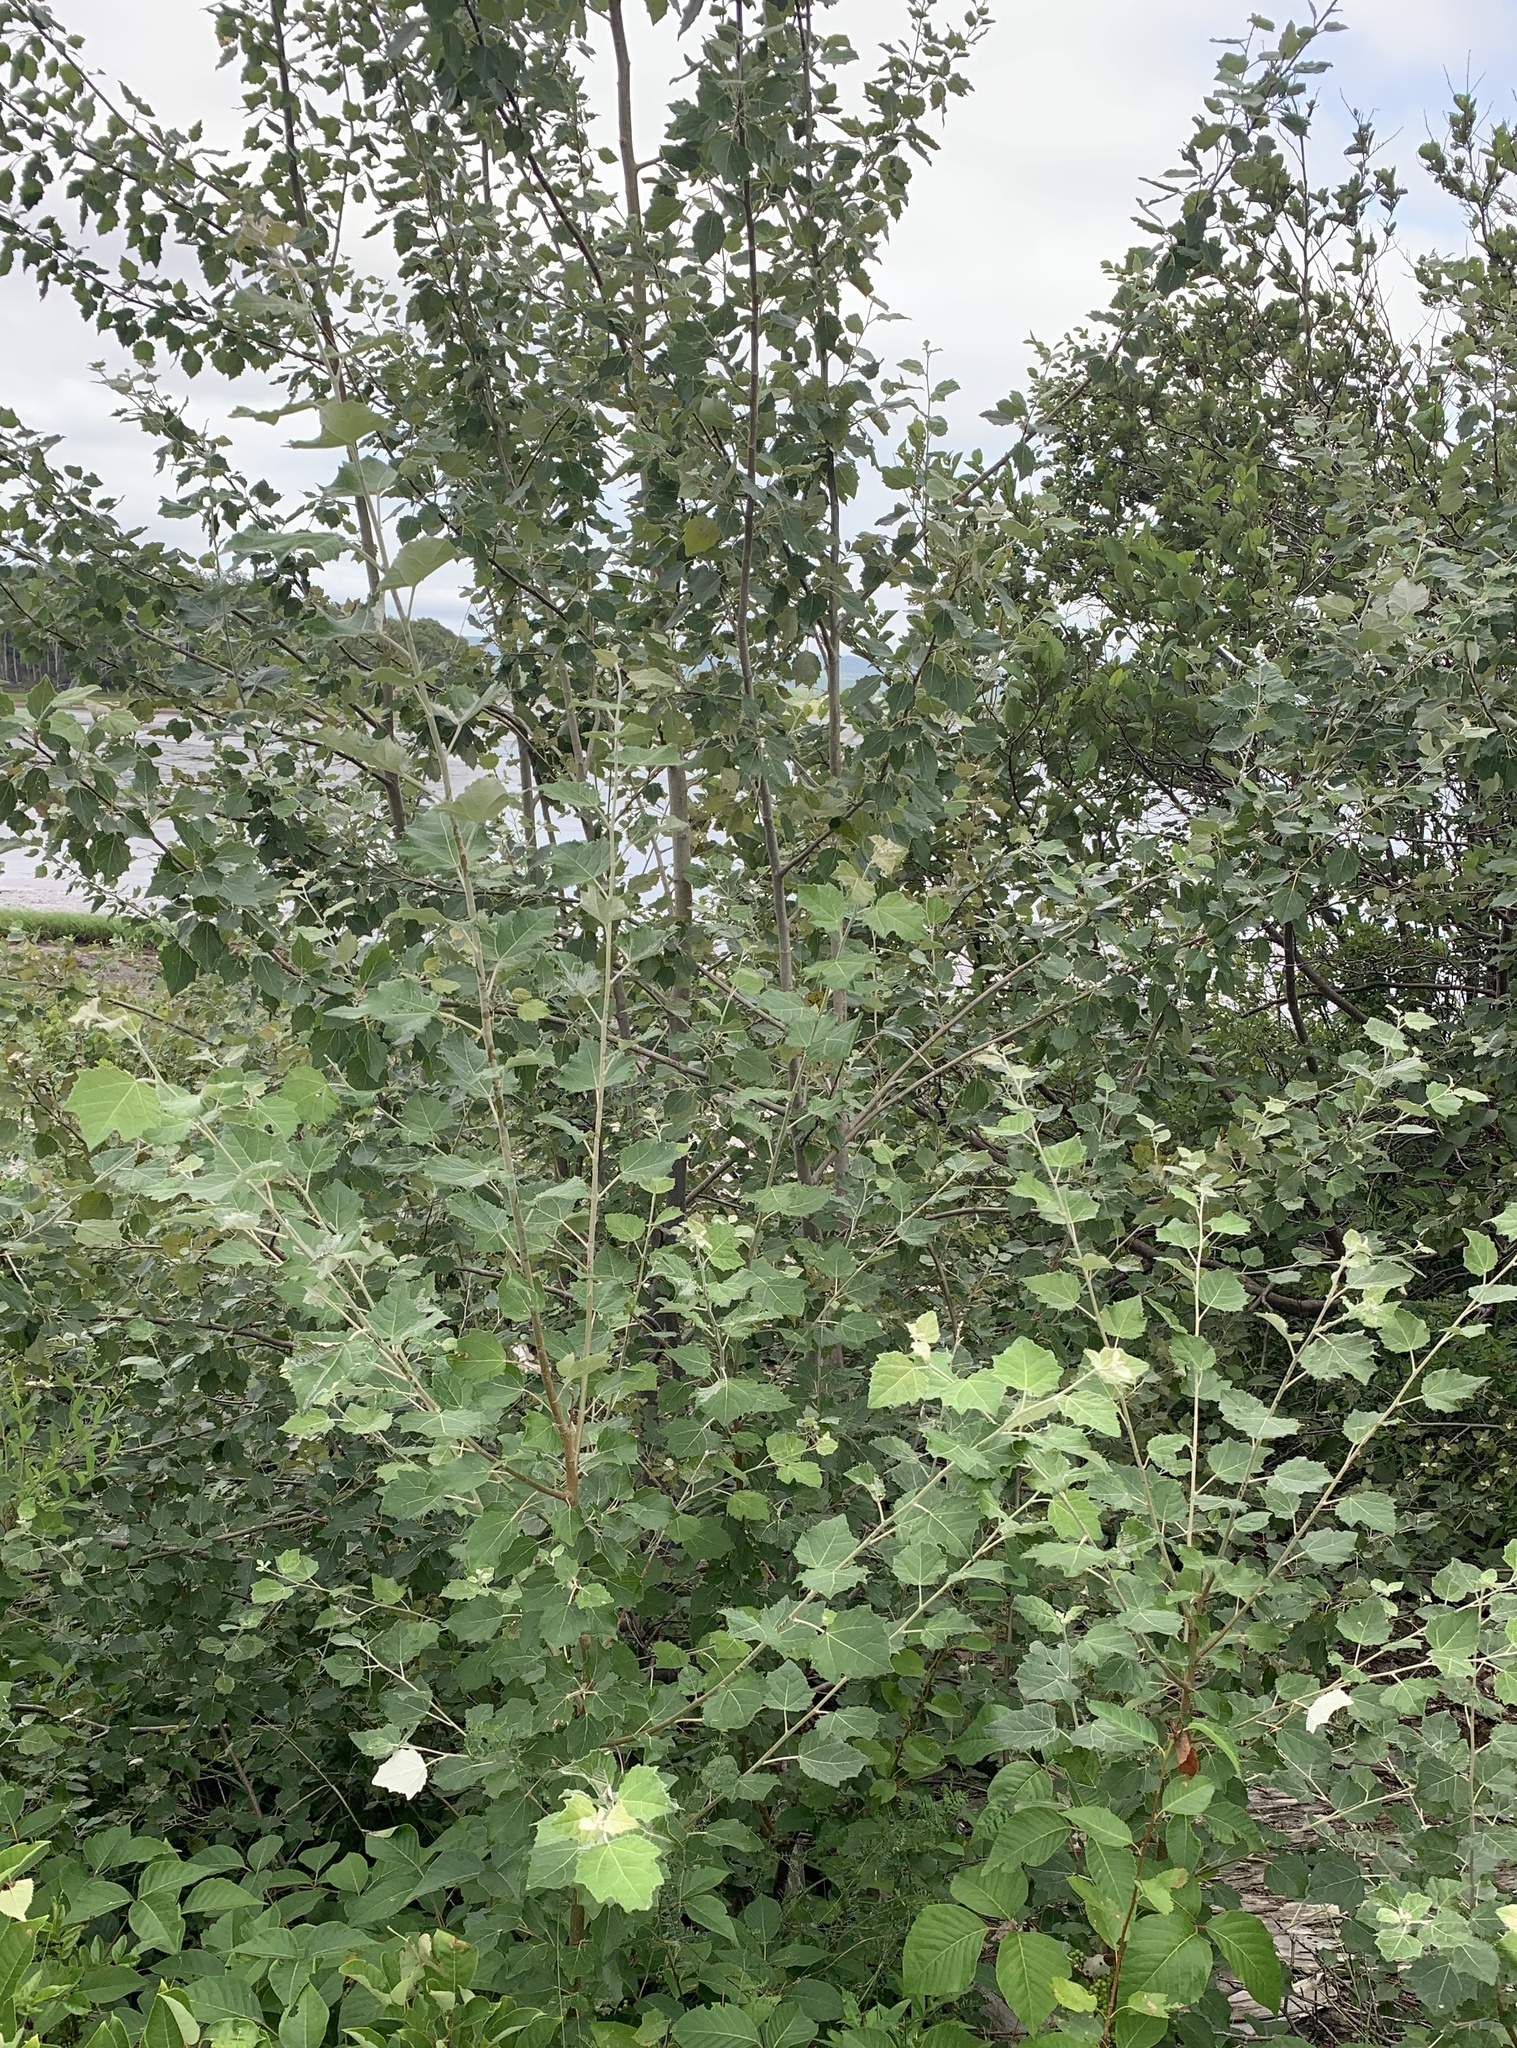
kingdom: Plantae
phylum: Tracheophyta
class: Magnoliopsida
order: Malpighiales
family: Salicaceae
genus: Populus
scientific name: Populus alba
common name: White poplar
